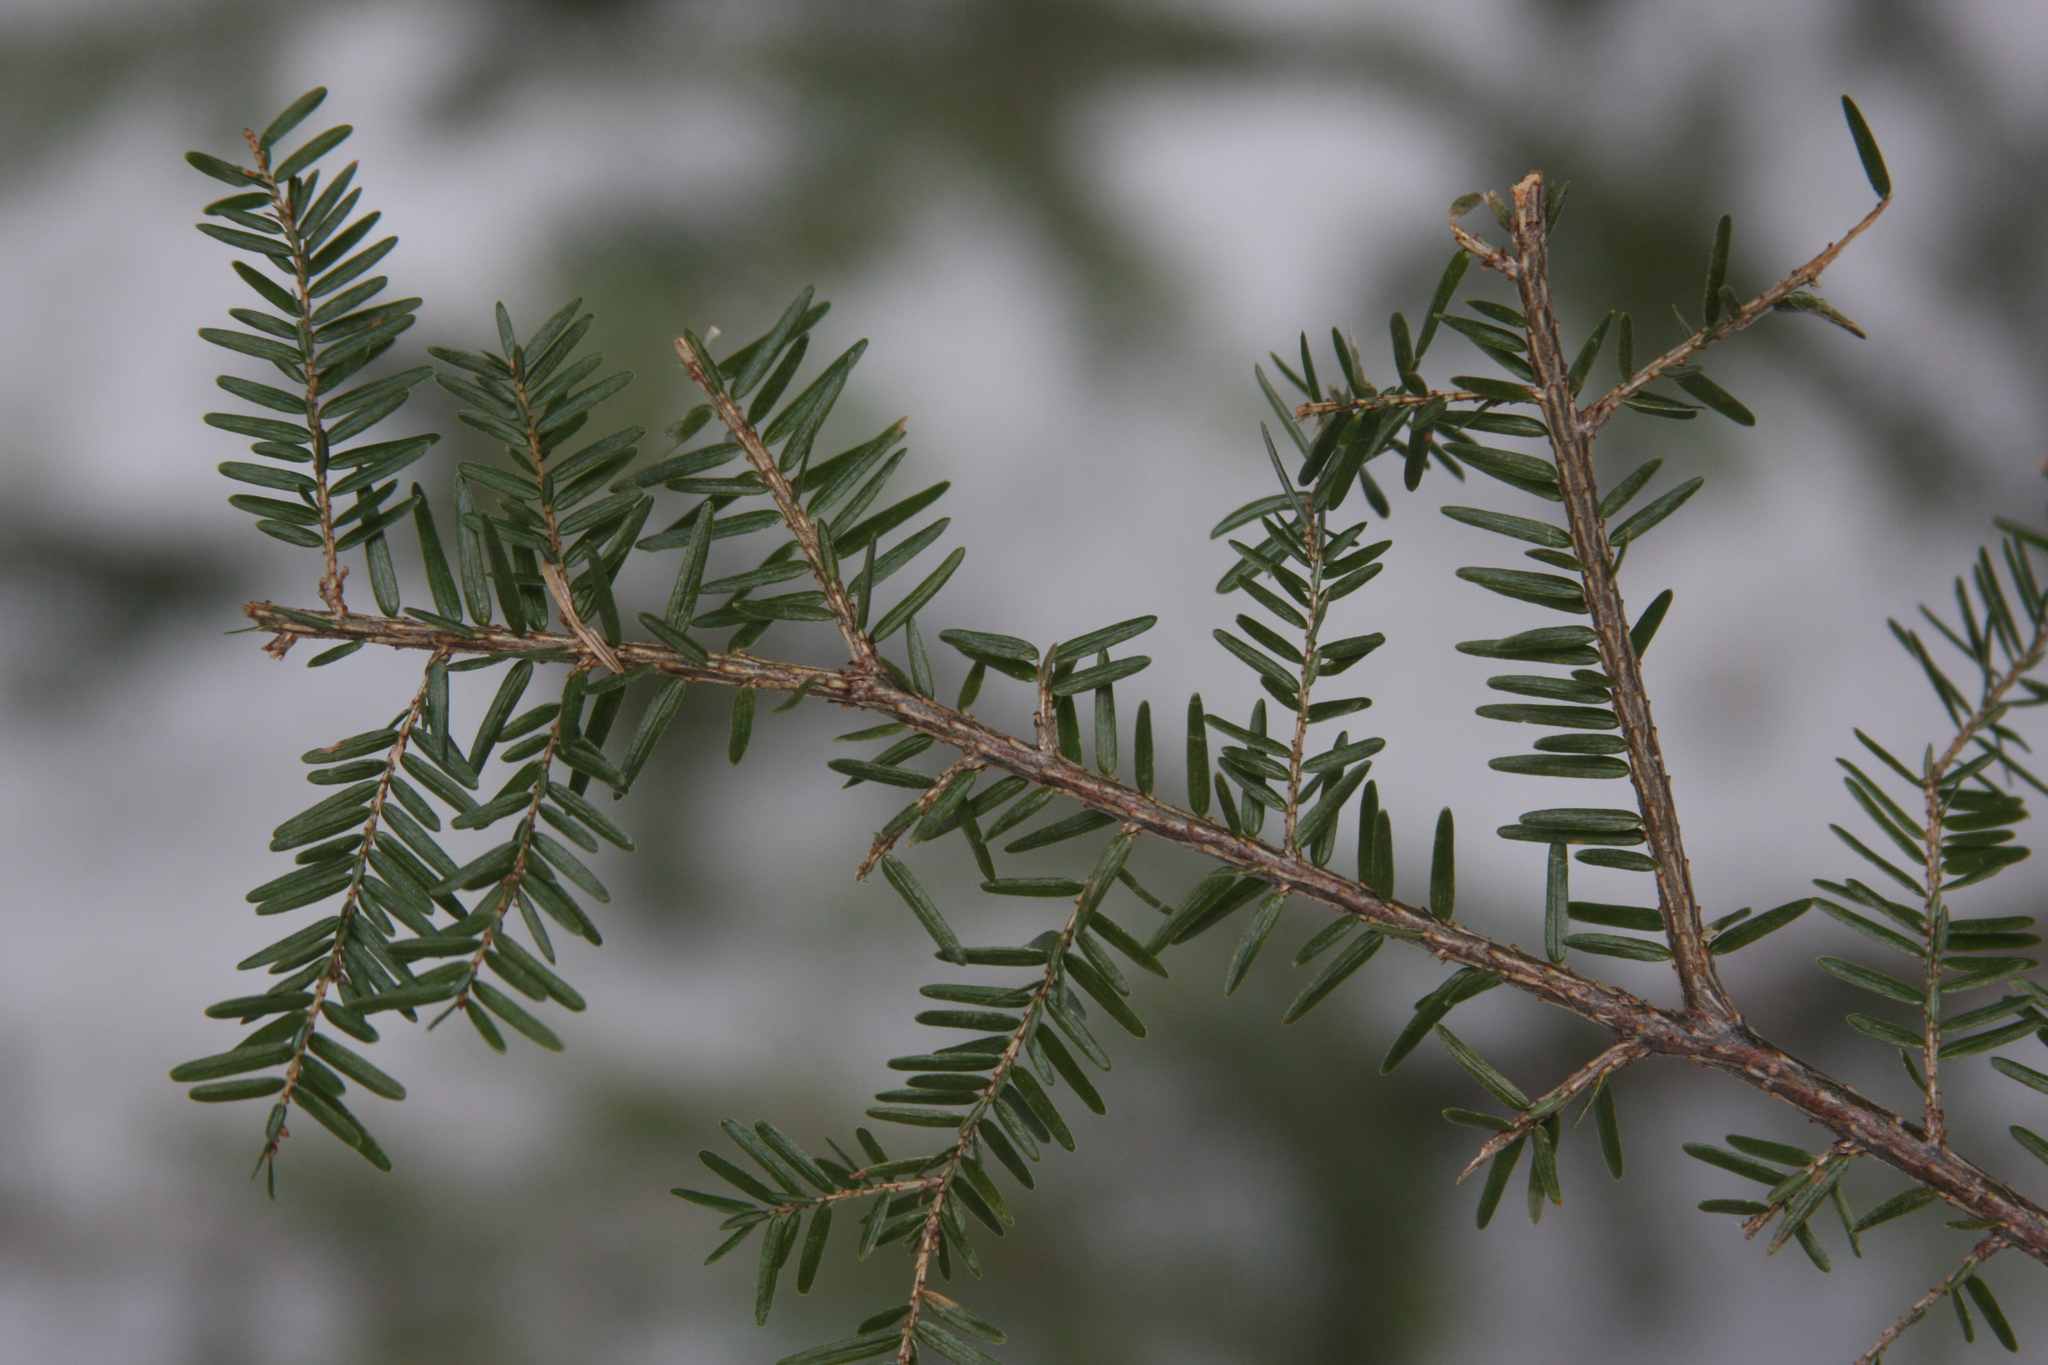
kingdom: Plantae
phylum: Tracheophyta
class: Pinopsida
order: Pinales
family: Pinaceae
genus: Tsuga
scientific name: Tsuga canadensis
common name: Eastern hemlock
